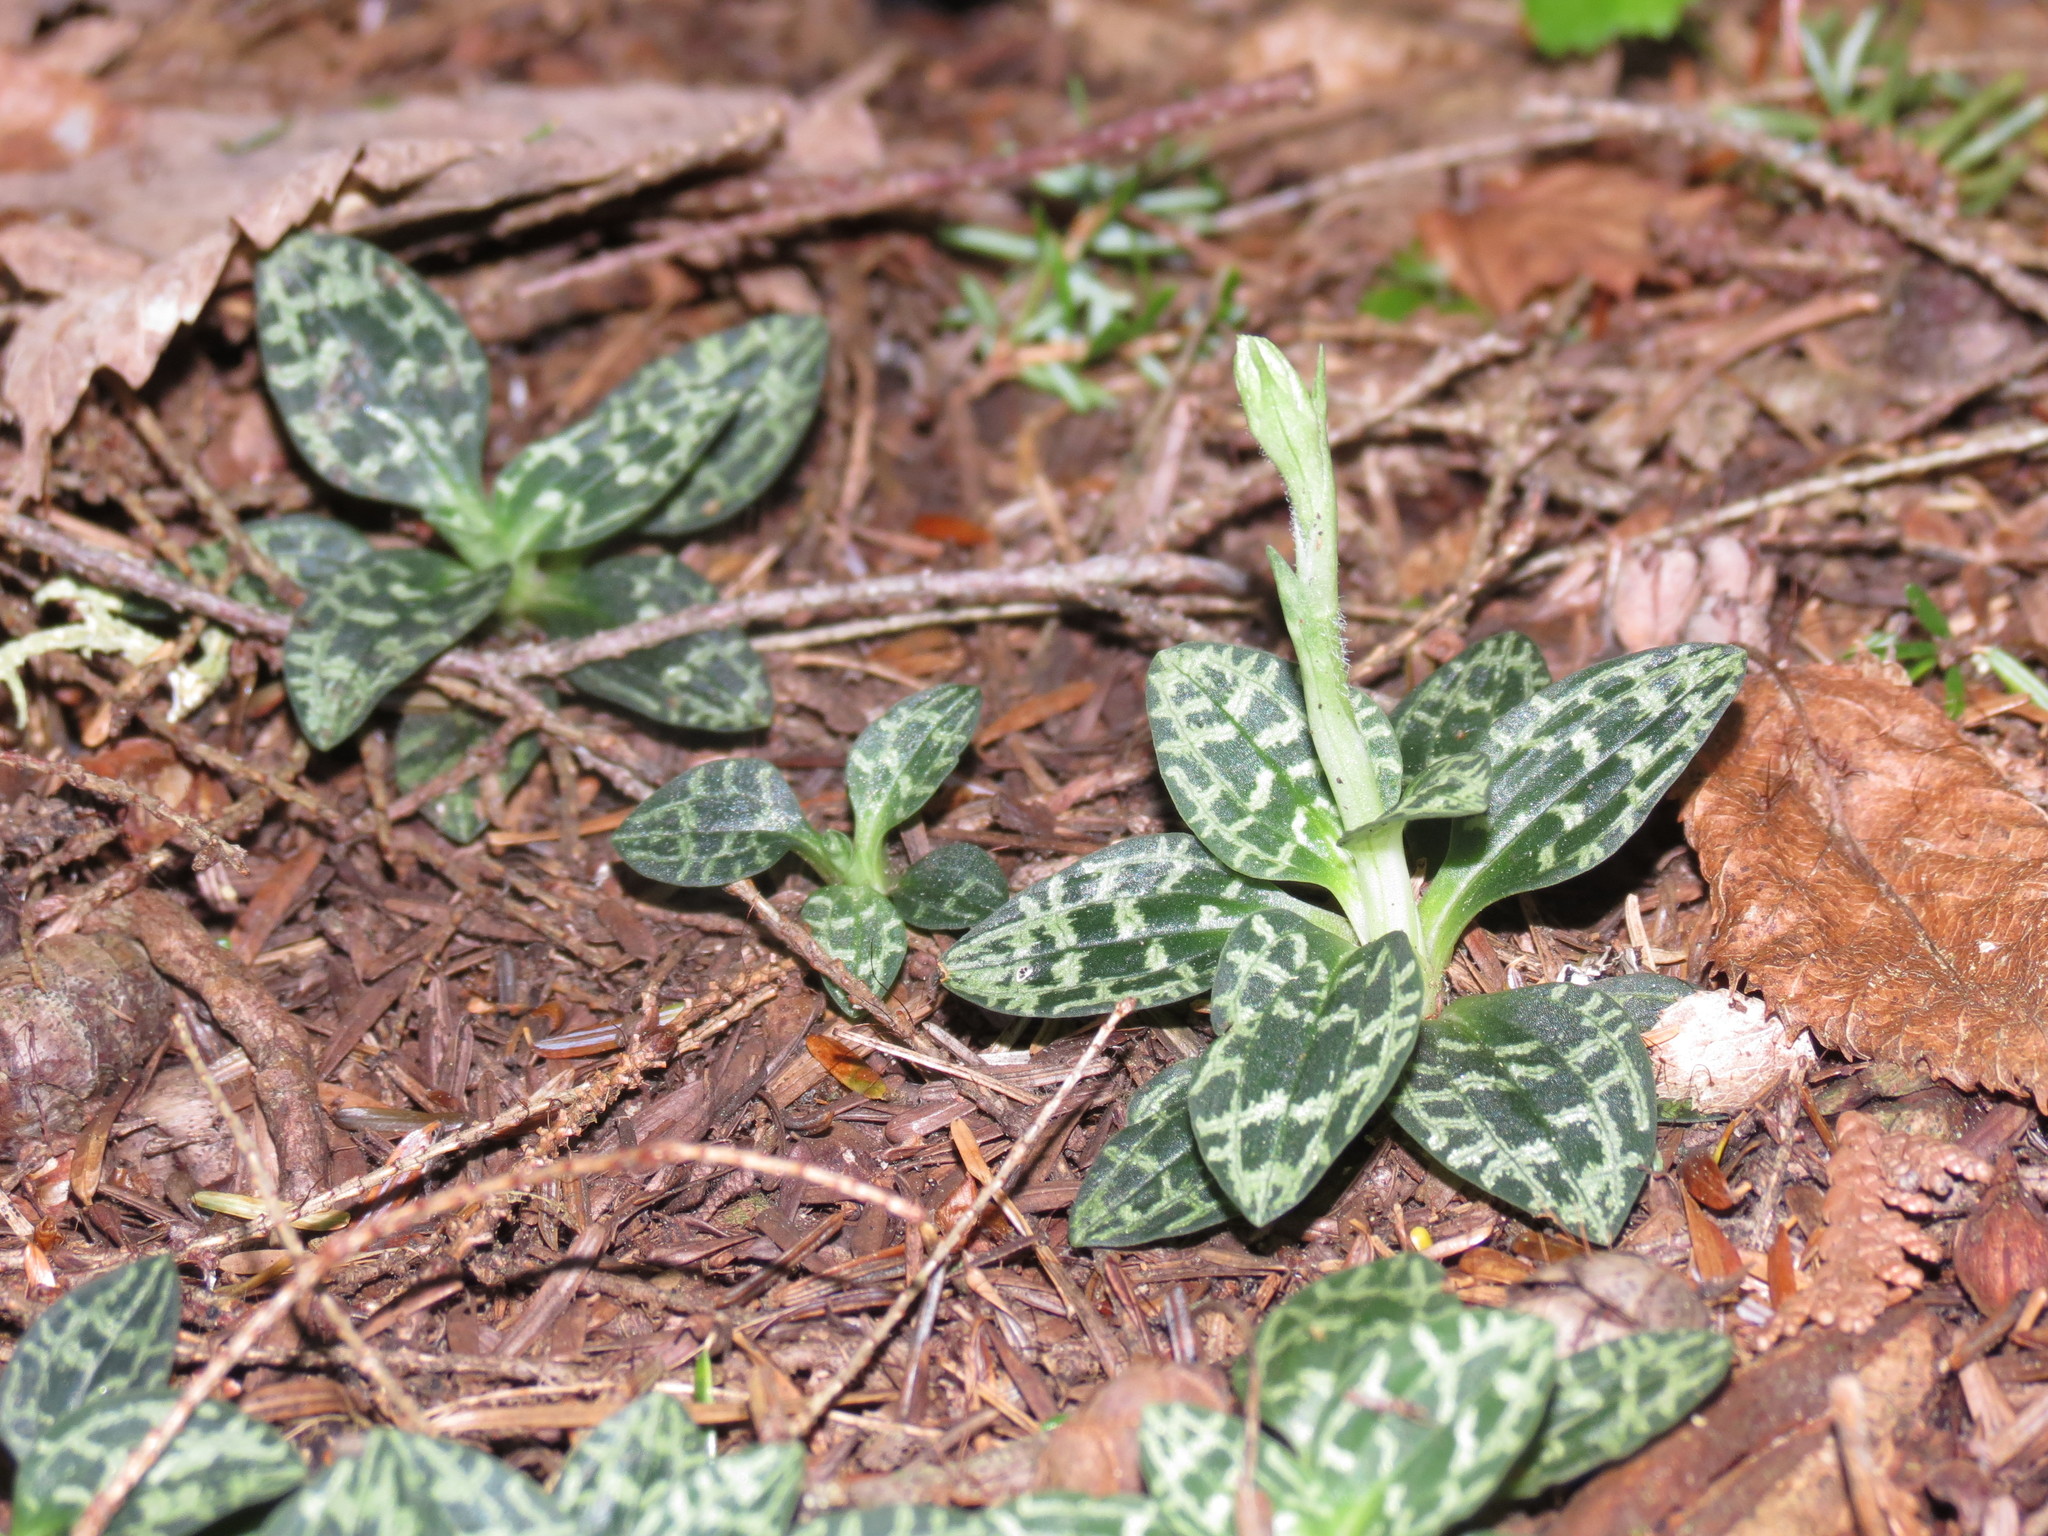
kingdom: Plantae
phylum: Tracheophyta
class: Liliopsida
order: Asparagales
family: Orchidaceae
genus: Goodyera
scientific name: Goodyera repens
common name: Creeping lady's-tresses
